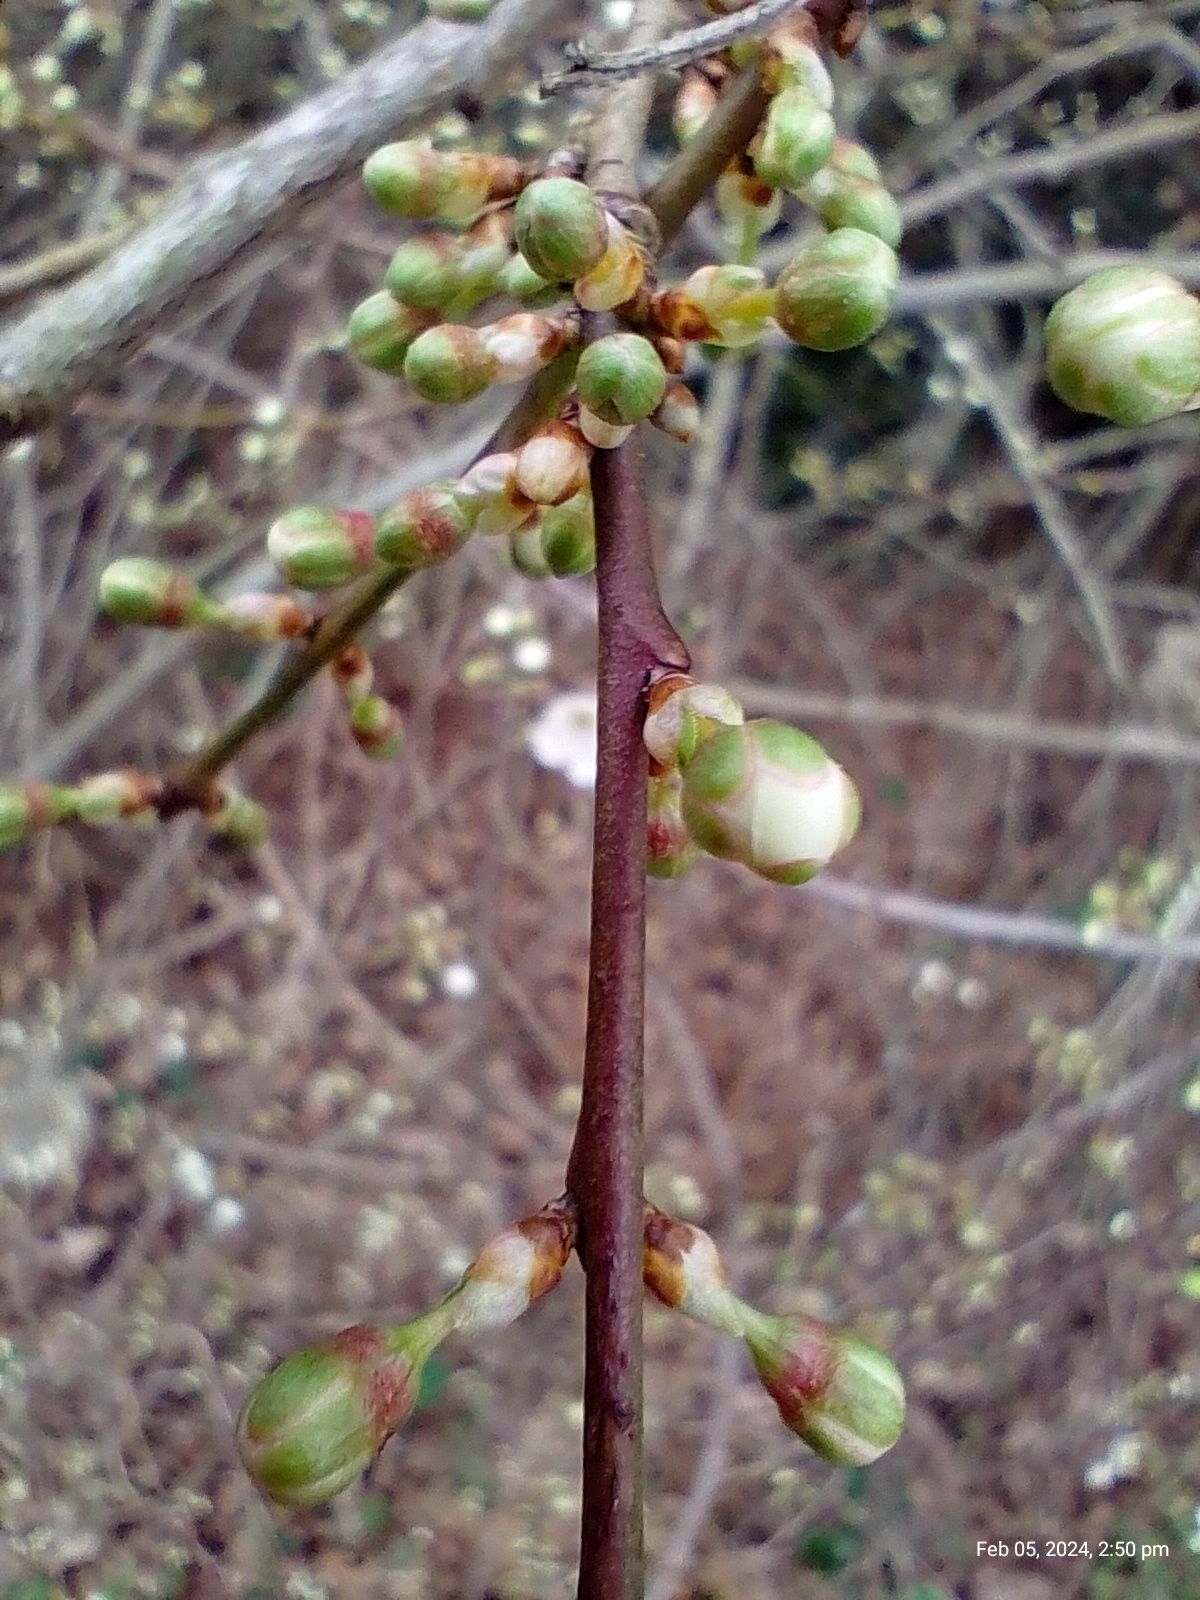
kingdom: Plantae
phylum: Tracheophyta
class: Magnoliopsida
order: Rosales
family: Rosaceae
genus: Prunus
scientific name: Prunus cerasifera
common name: Cherry plum
